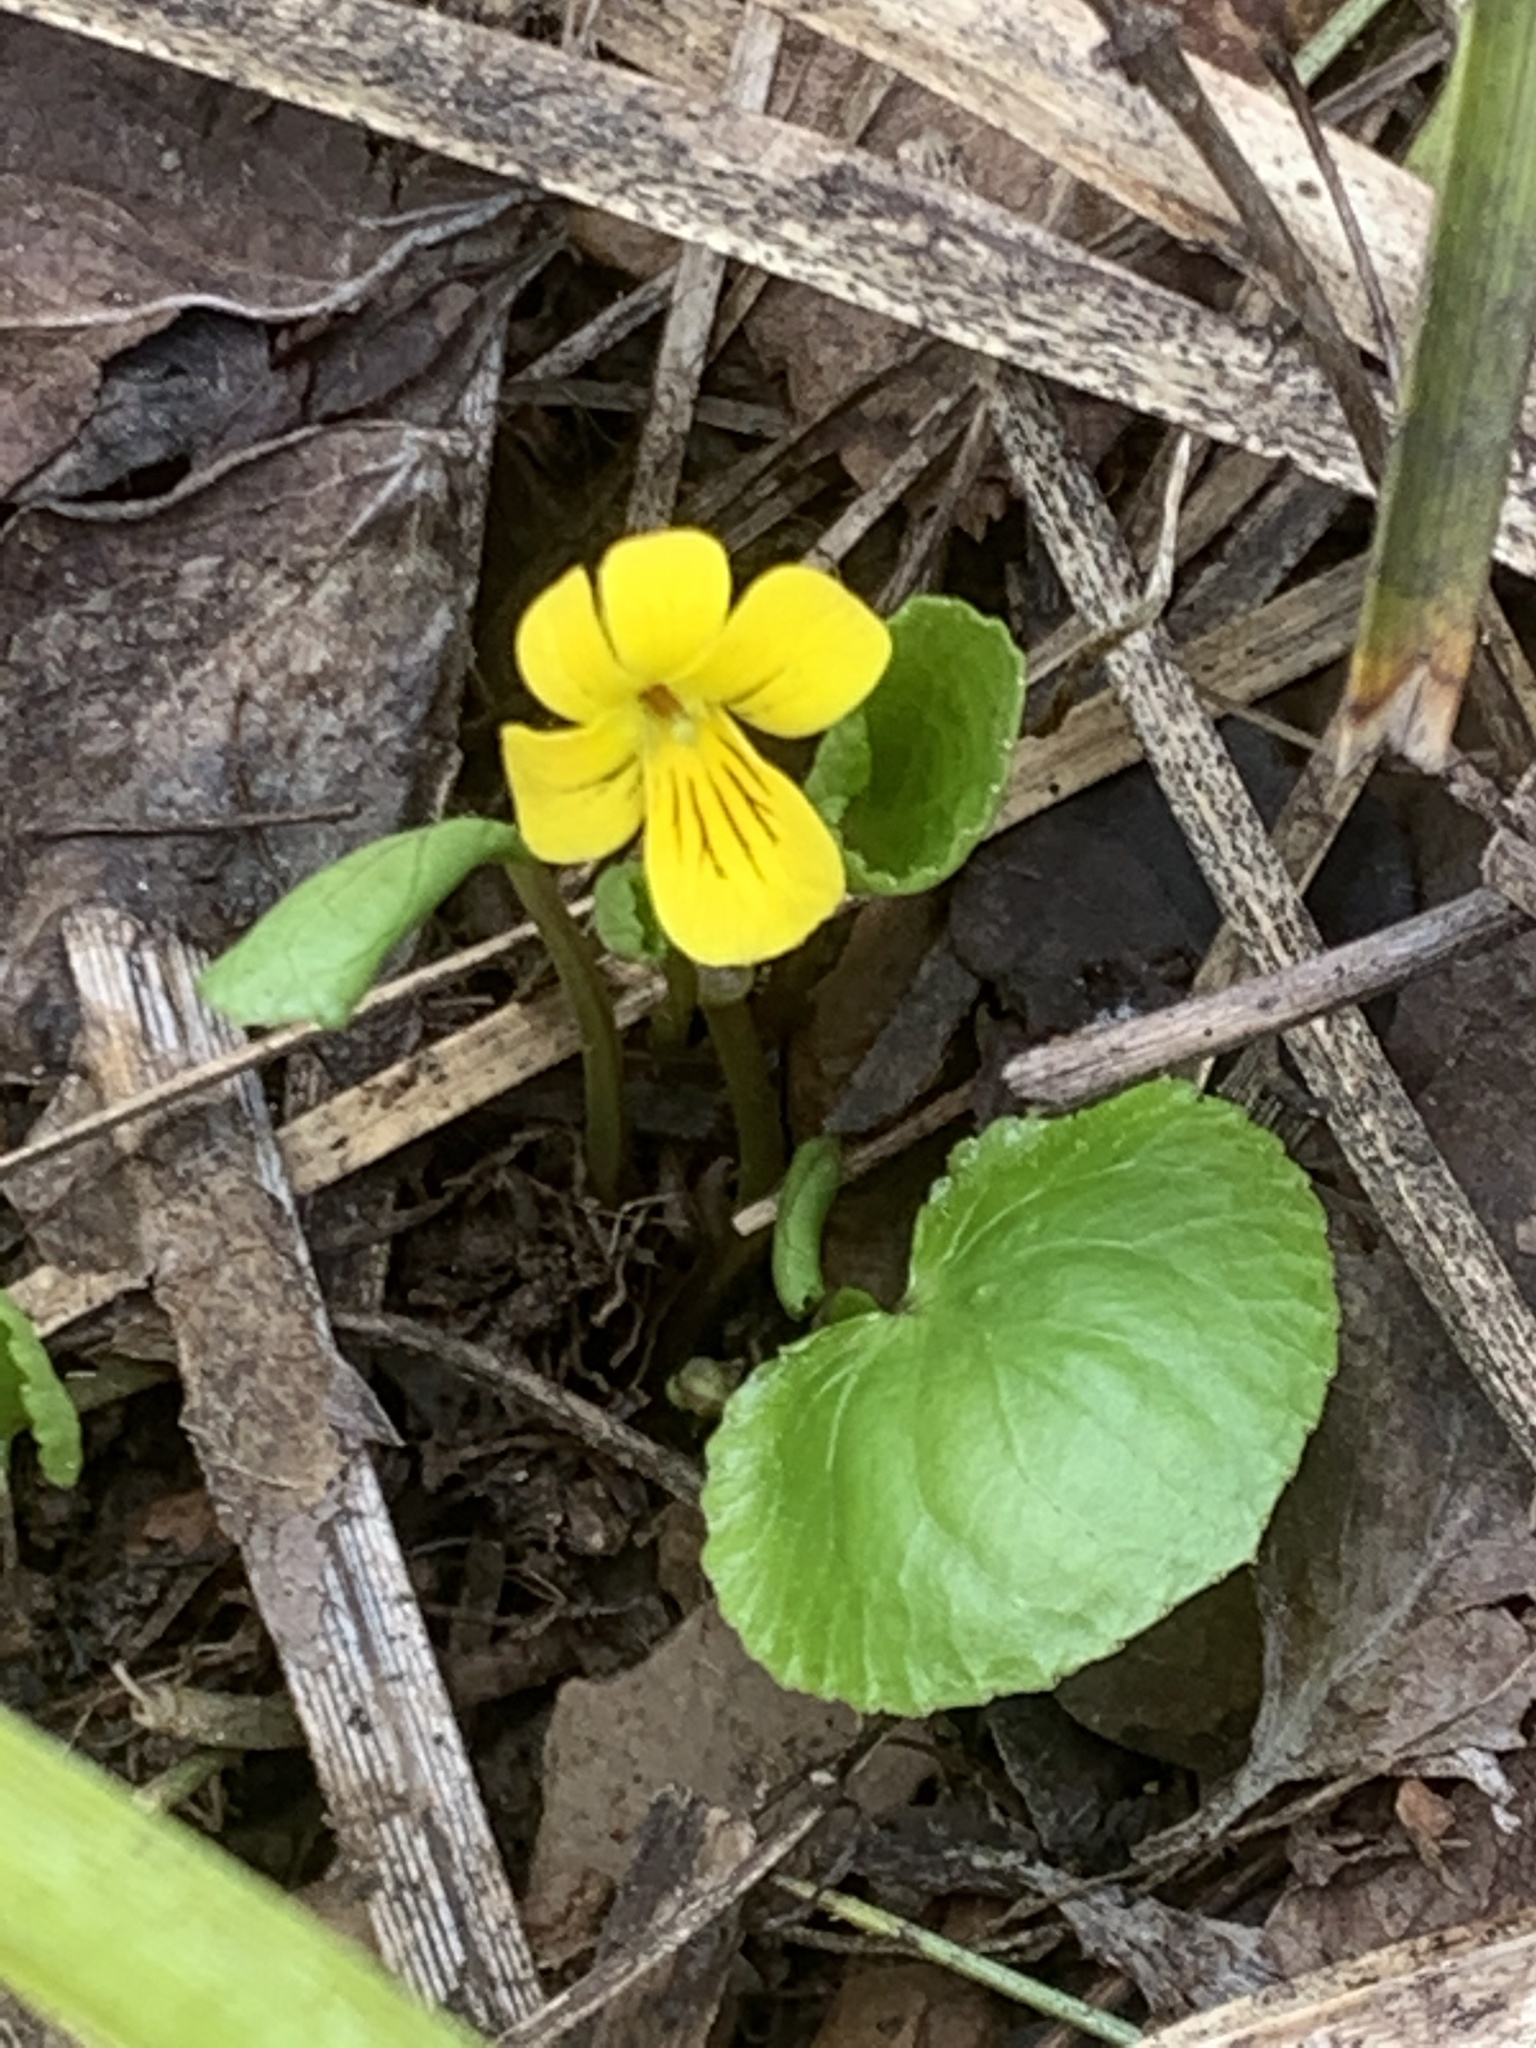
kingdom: Plantae
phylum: Tracheophyta
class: Magnoliopsida
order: Malpighiales
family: Violaceae
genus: Viola
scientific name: Viola orbiculata
